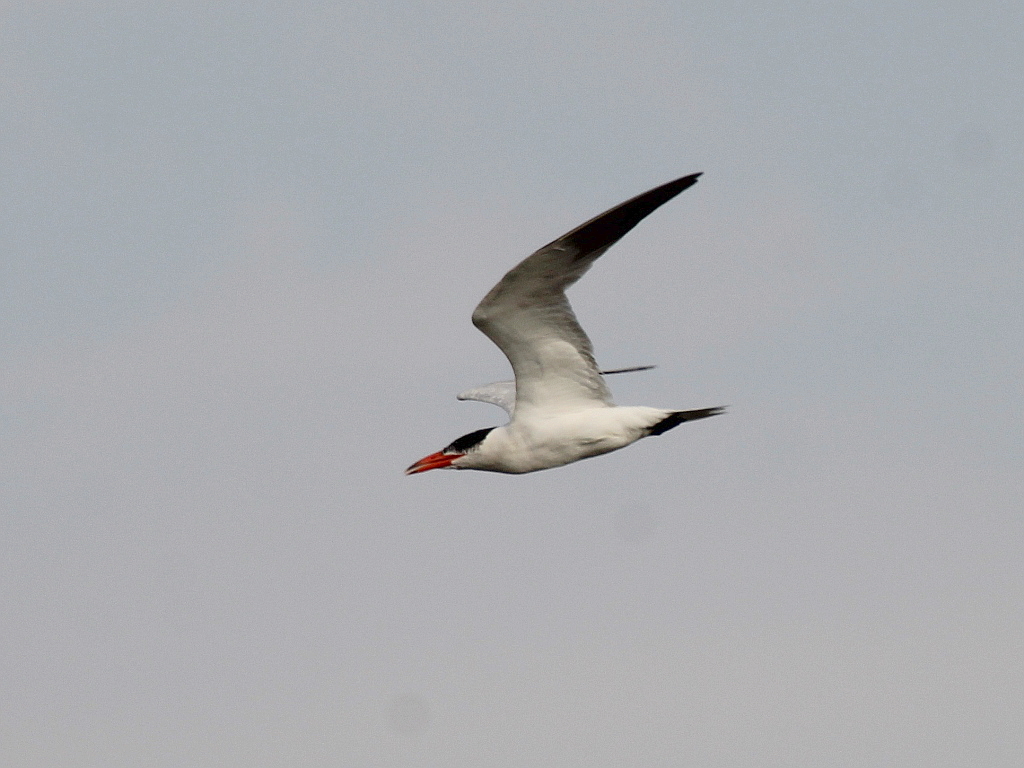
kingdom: Animalia
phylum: Chordata
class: Aves
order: Charadriiformes
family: Laridae
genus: Hydroprogne
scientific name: Hydroprogne caspia
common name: Caspian tern
